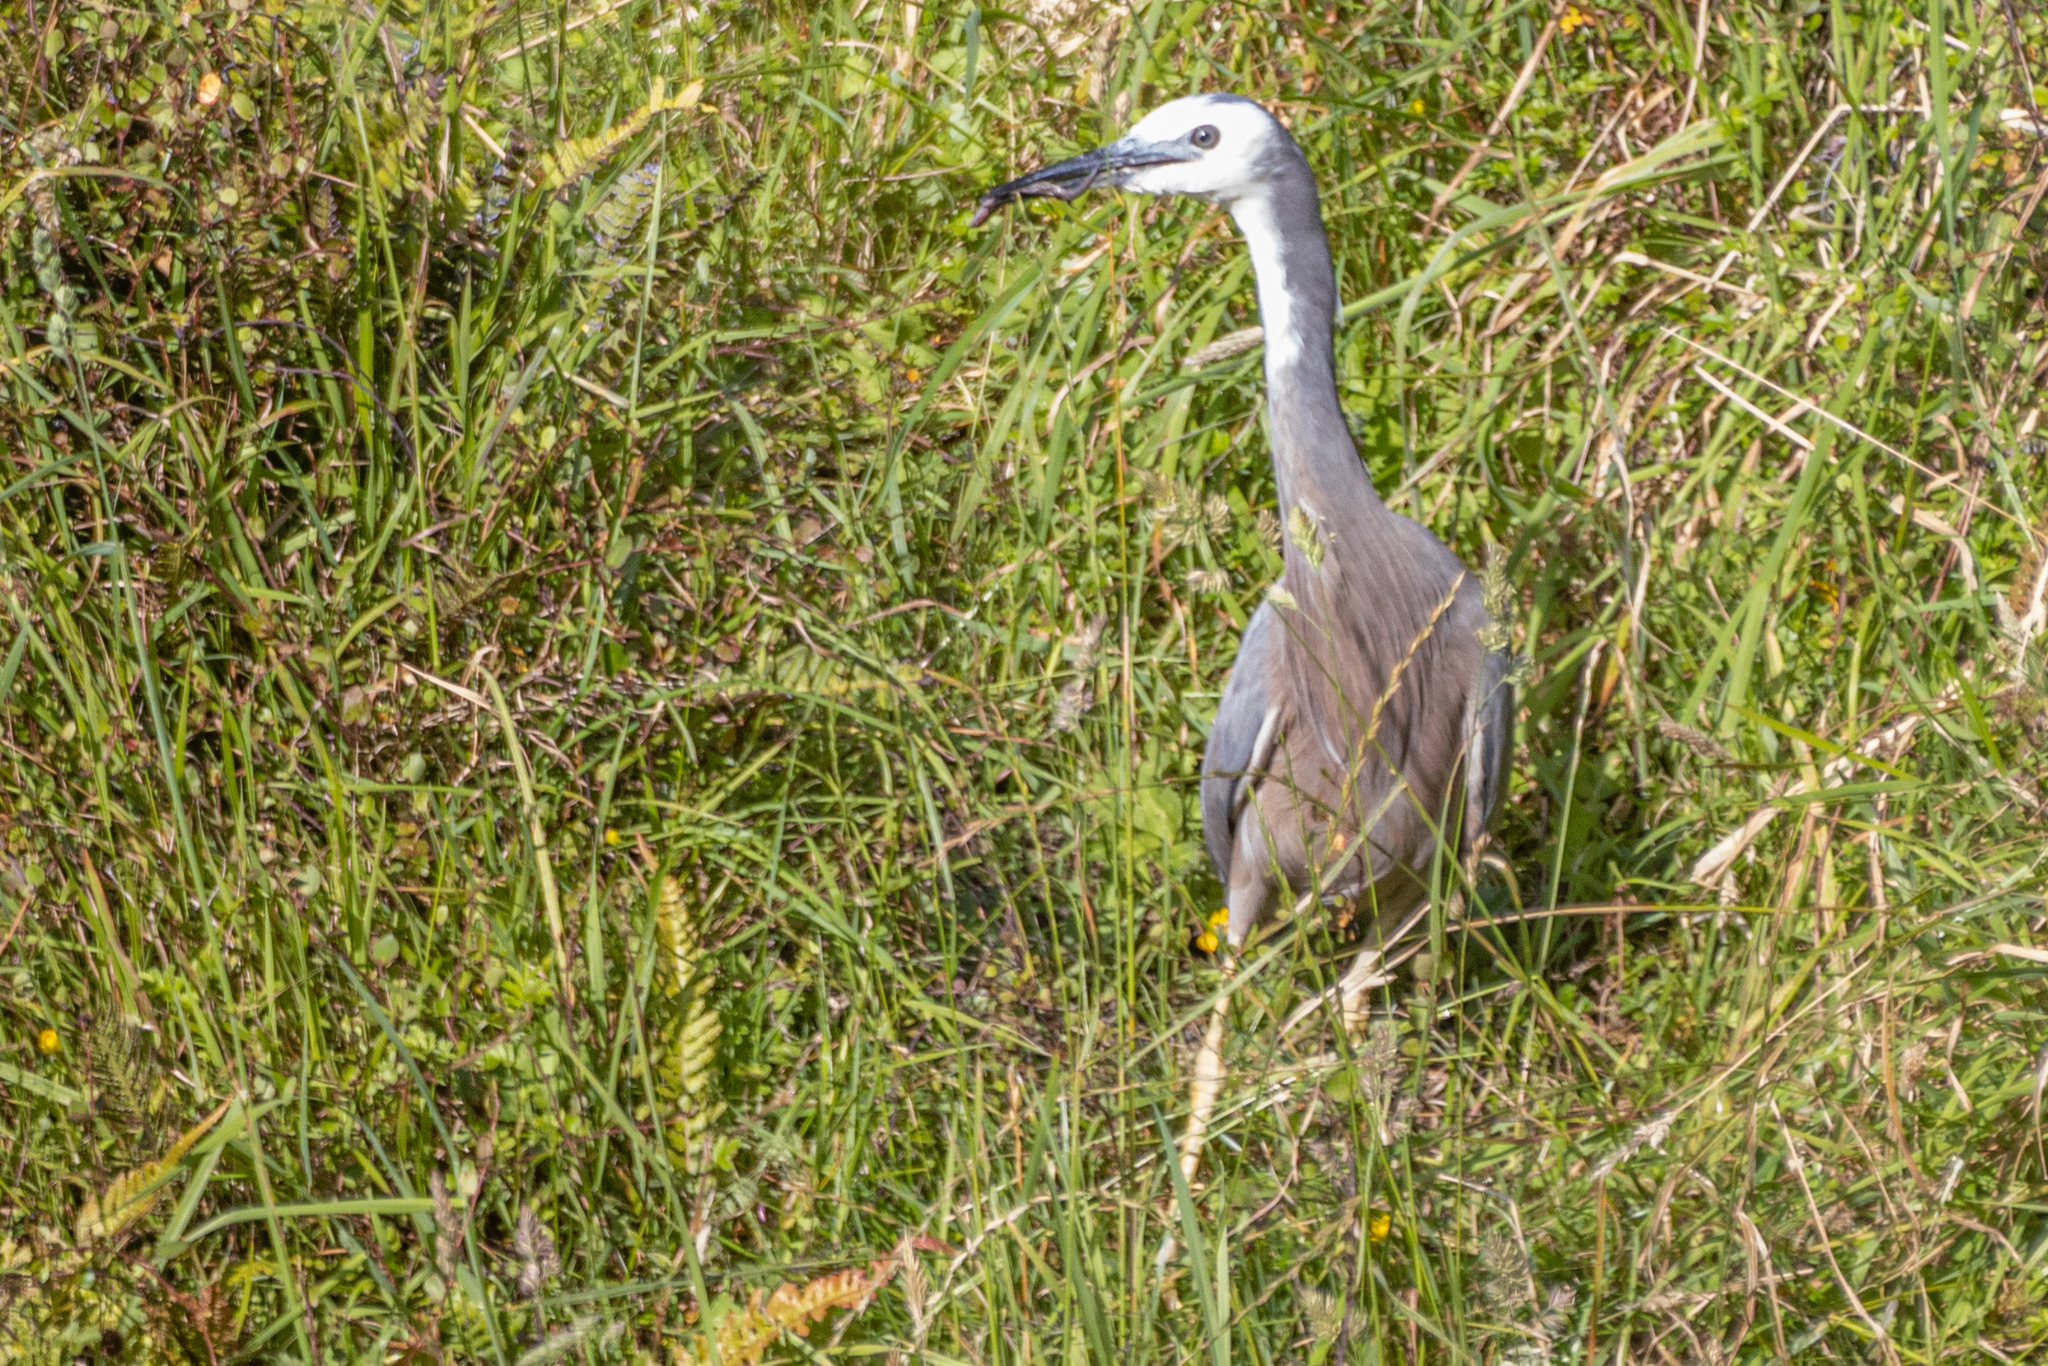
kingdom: Animalia
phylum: Chordata
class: Aves
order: Pelecaniformes
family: Ardeidae
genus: Egretta
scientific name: Egretta novaehollandiae
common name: White-faced heron
